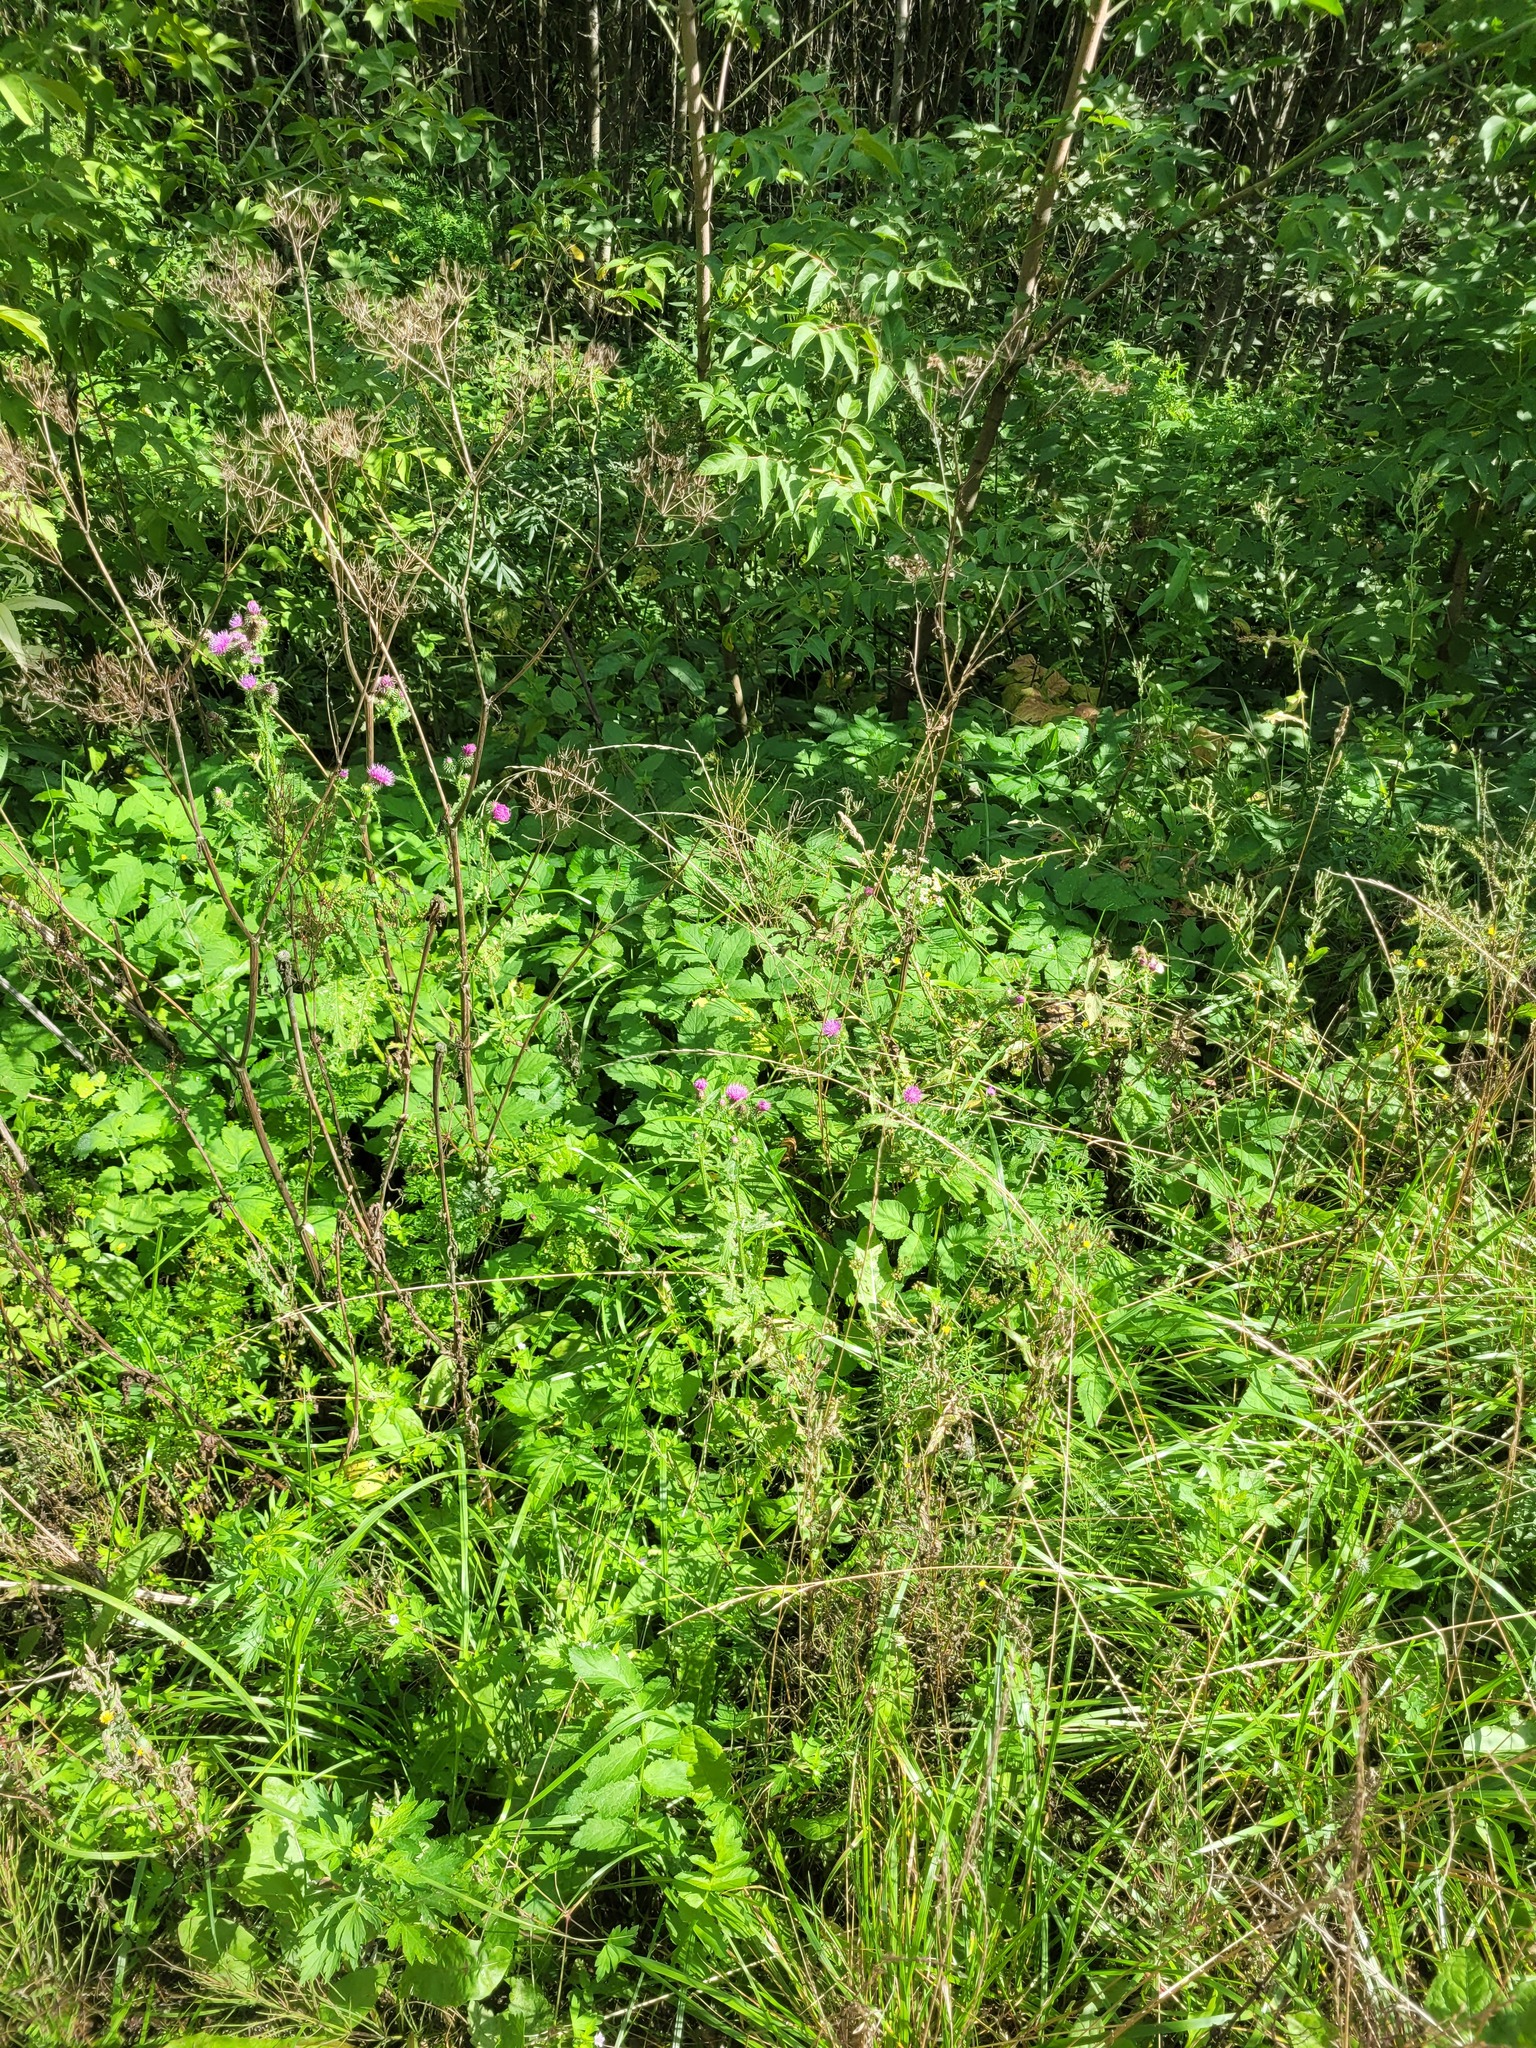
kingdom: Plantae
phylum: Tracheophyta
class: Magnoliopsida
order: Asterales
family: Asteraceae
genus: Carduus
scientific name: Carduus crispus
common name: Welted thistle
